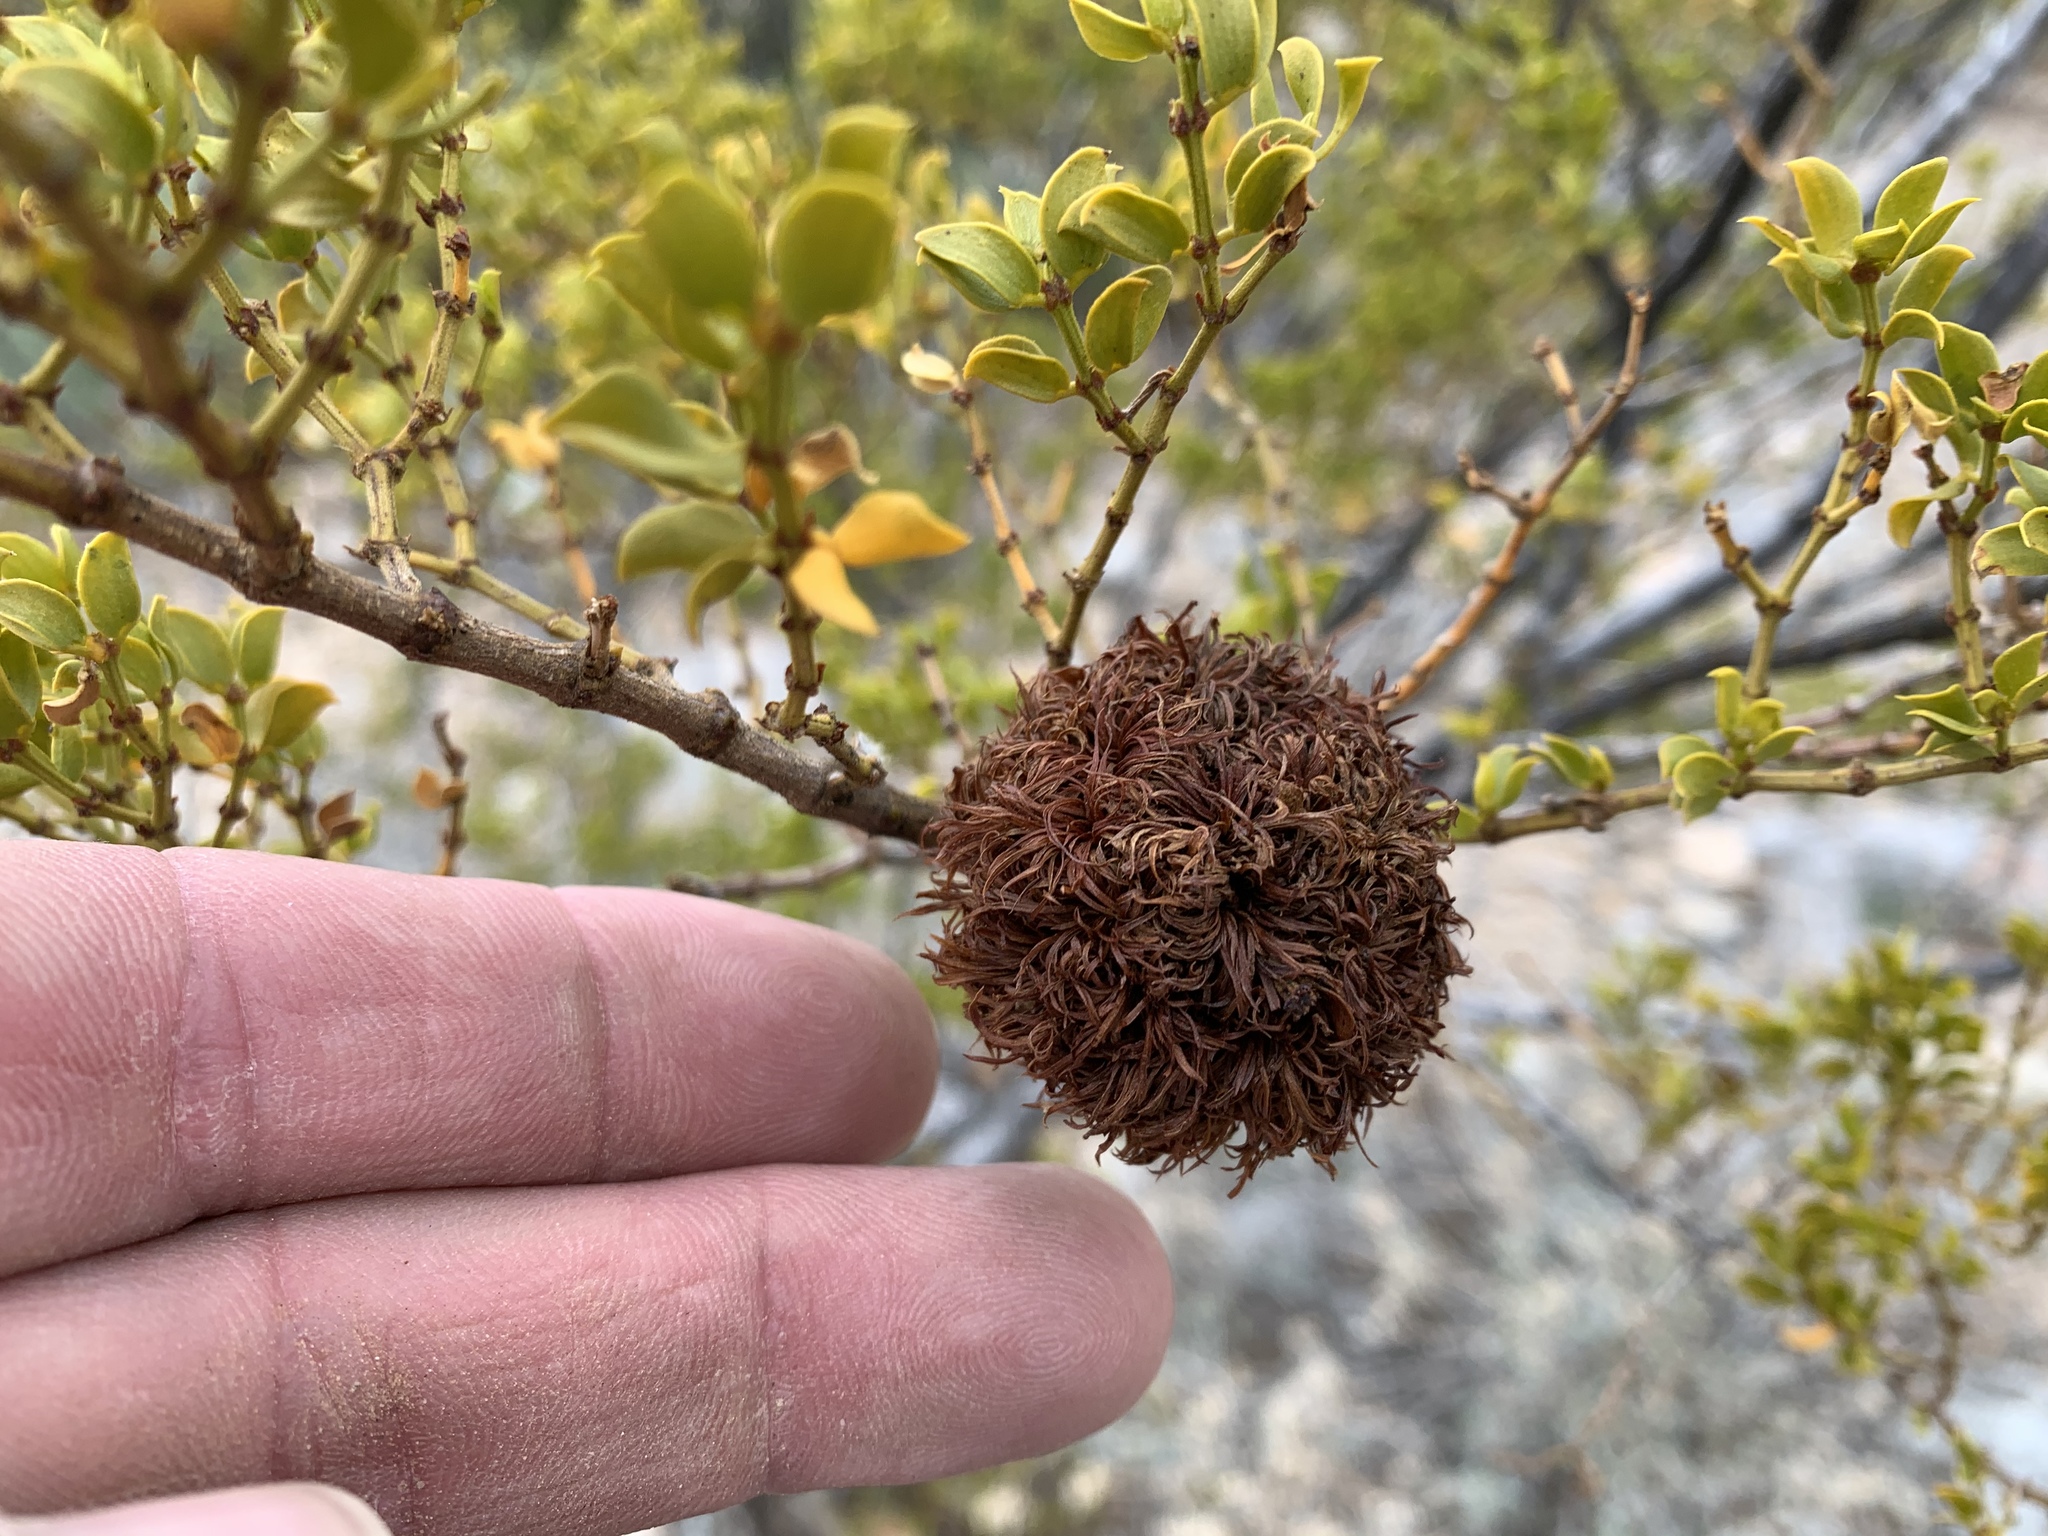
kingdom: Animalia
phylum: Arthropoda
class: Insecta
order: Diptera
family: Cecidomyiidae
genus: Asphondylia
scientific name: Asphondylia auripila
